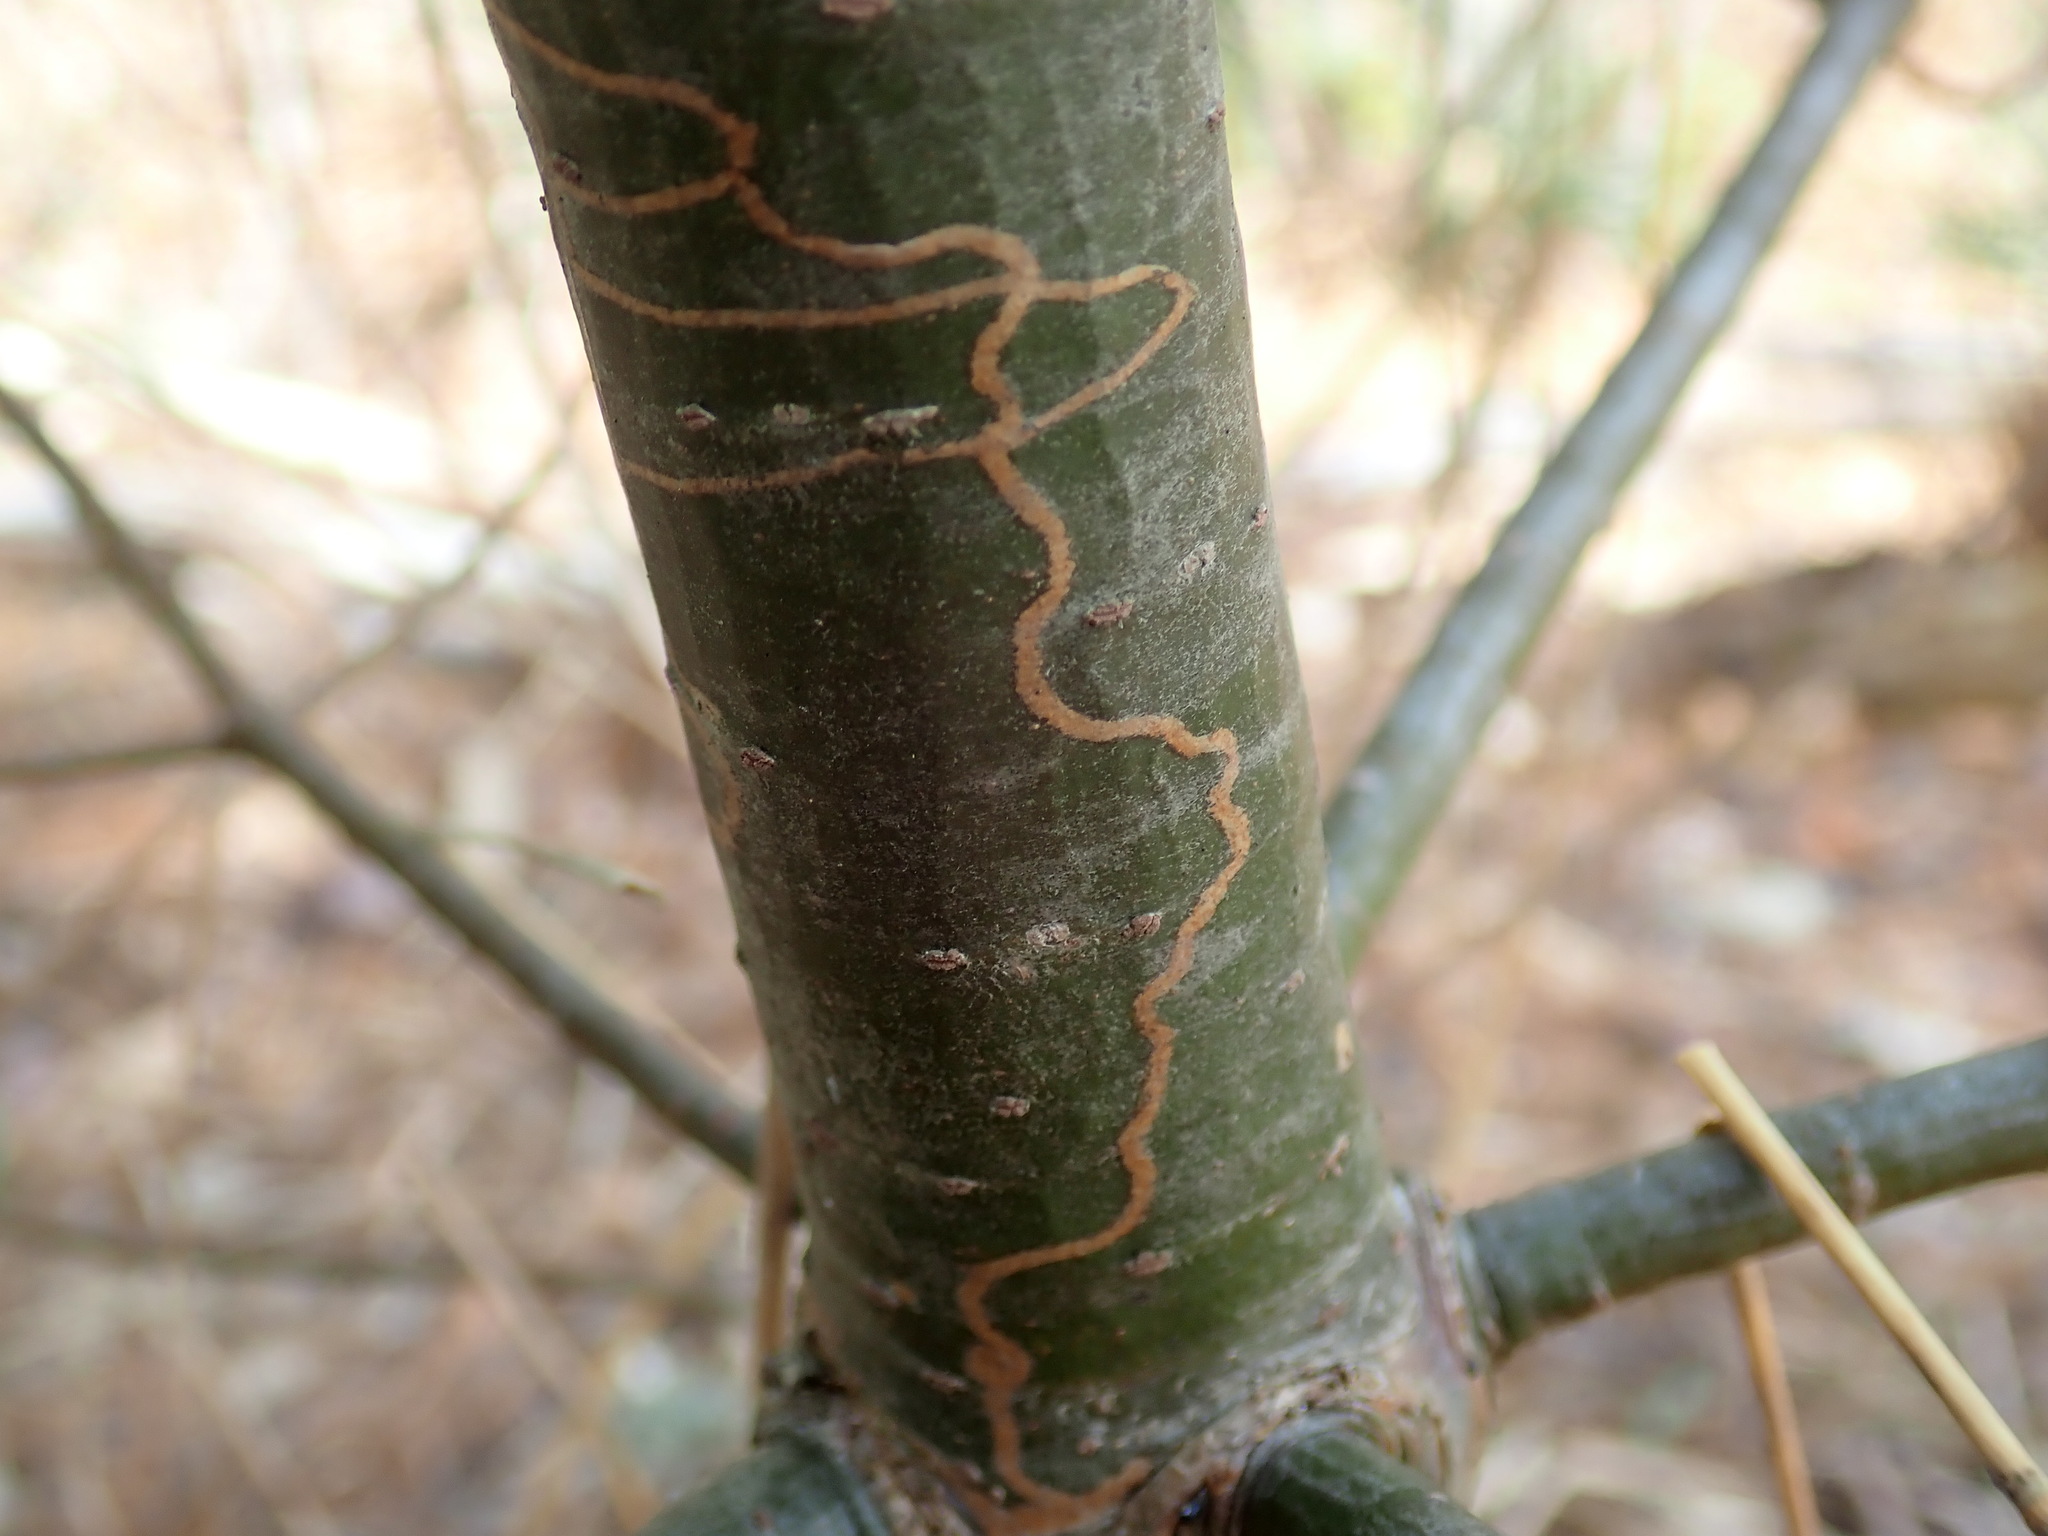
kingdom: Animalia
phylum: Arthropoda
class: Insecta
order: Lepidoptera
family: Gracillariidae
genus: Marmara
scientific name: Marmara fasciella
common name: White pine barkminer moth
